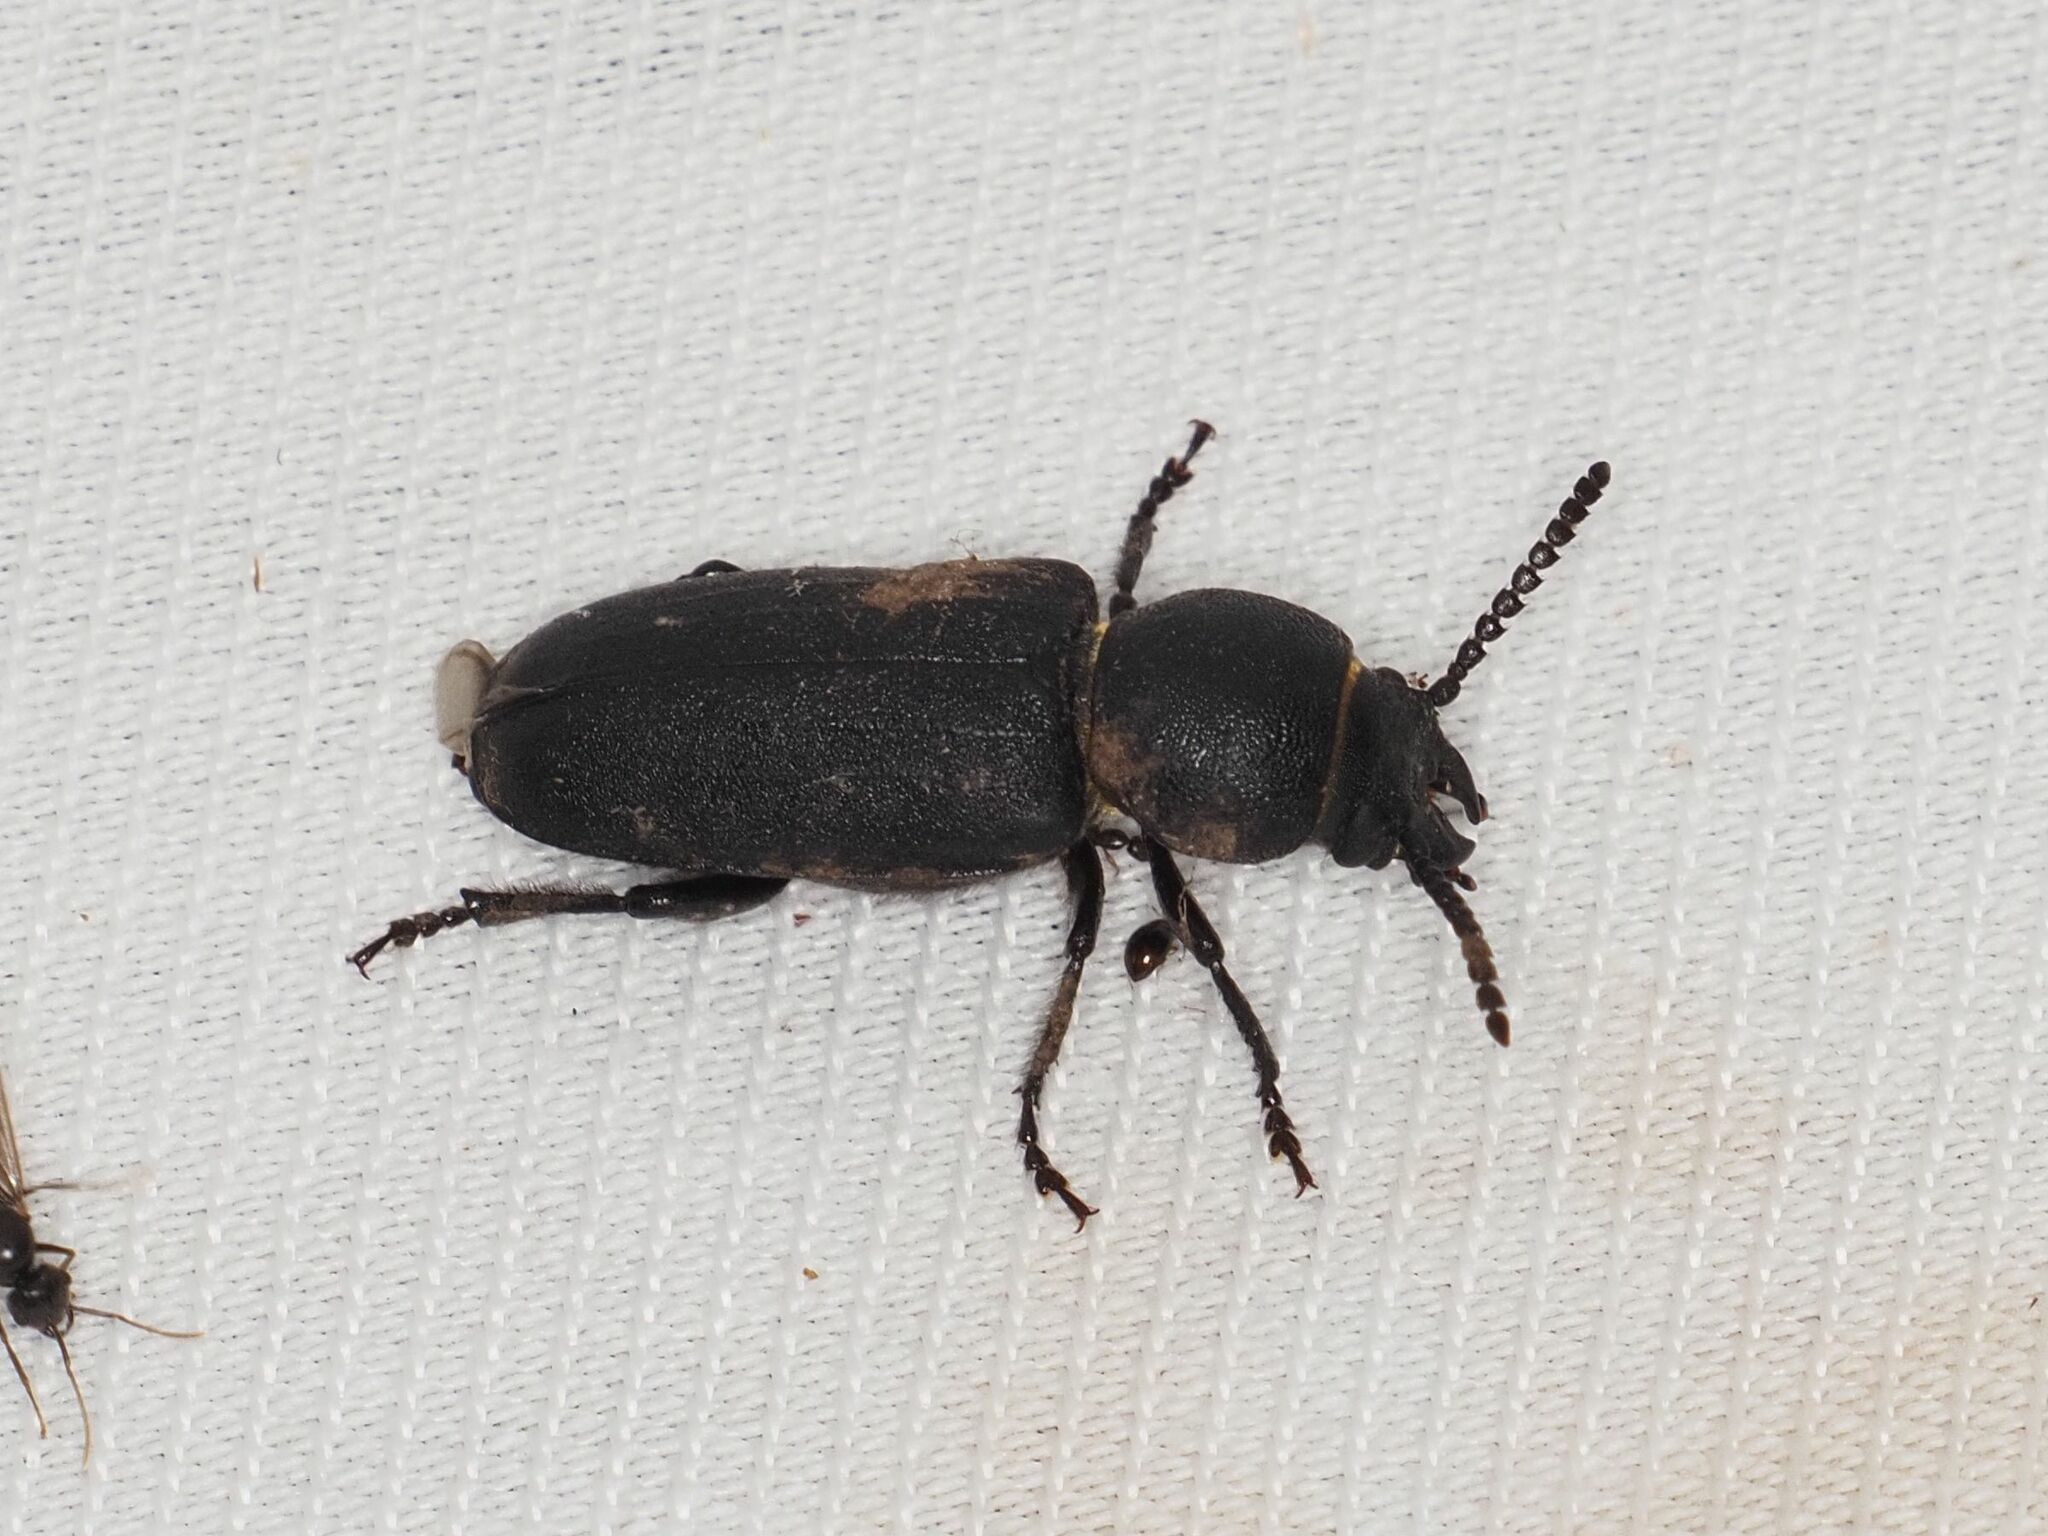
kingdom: Animalia
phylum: Arthropoda
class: Insecta
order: Coleoptera
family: Cerambycidae
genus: Spondylis
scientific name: Spondylis buprestoides
